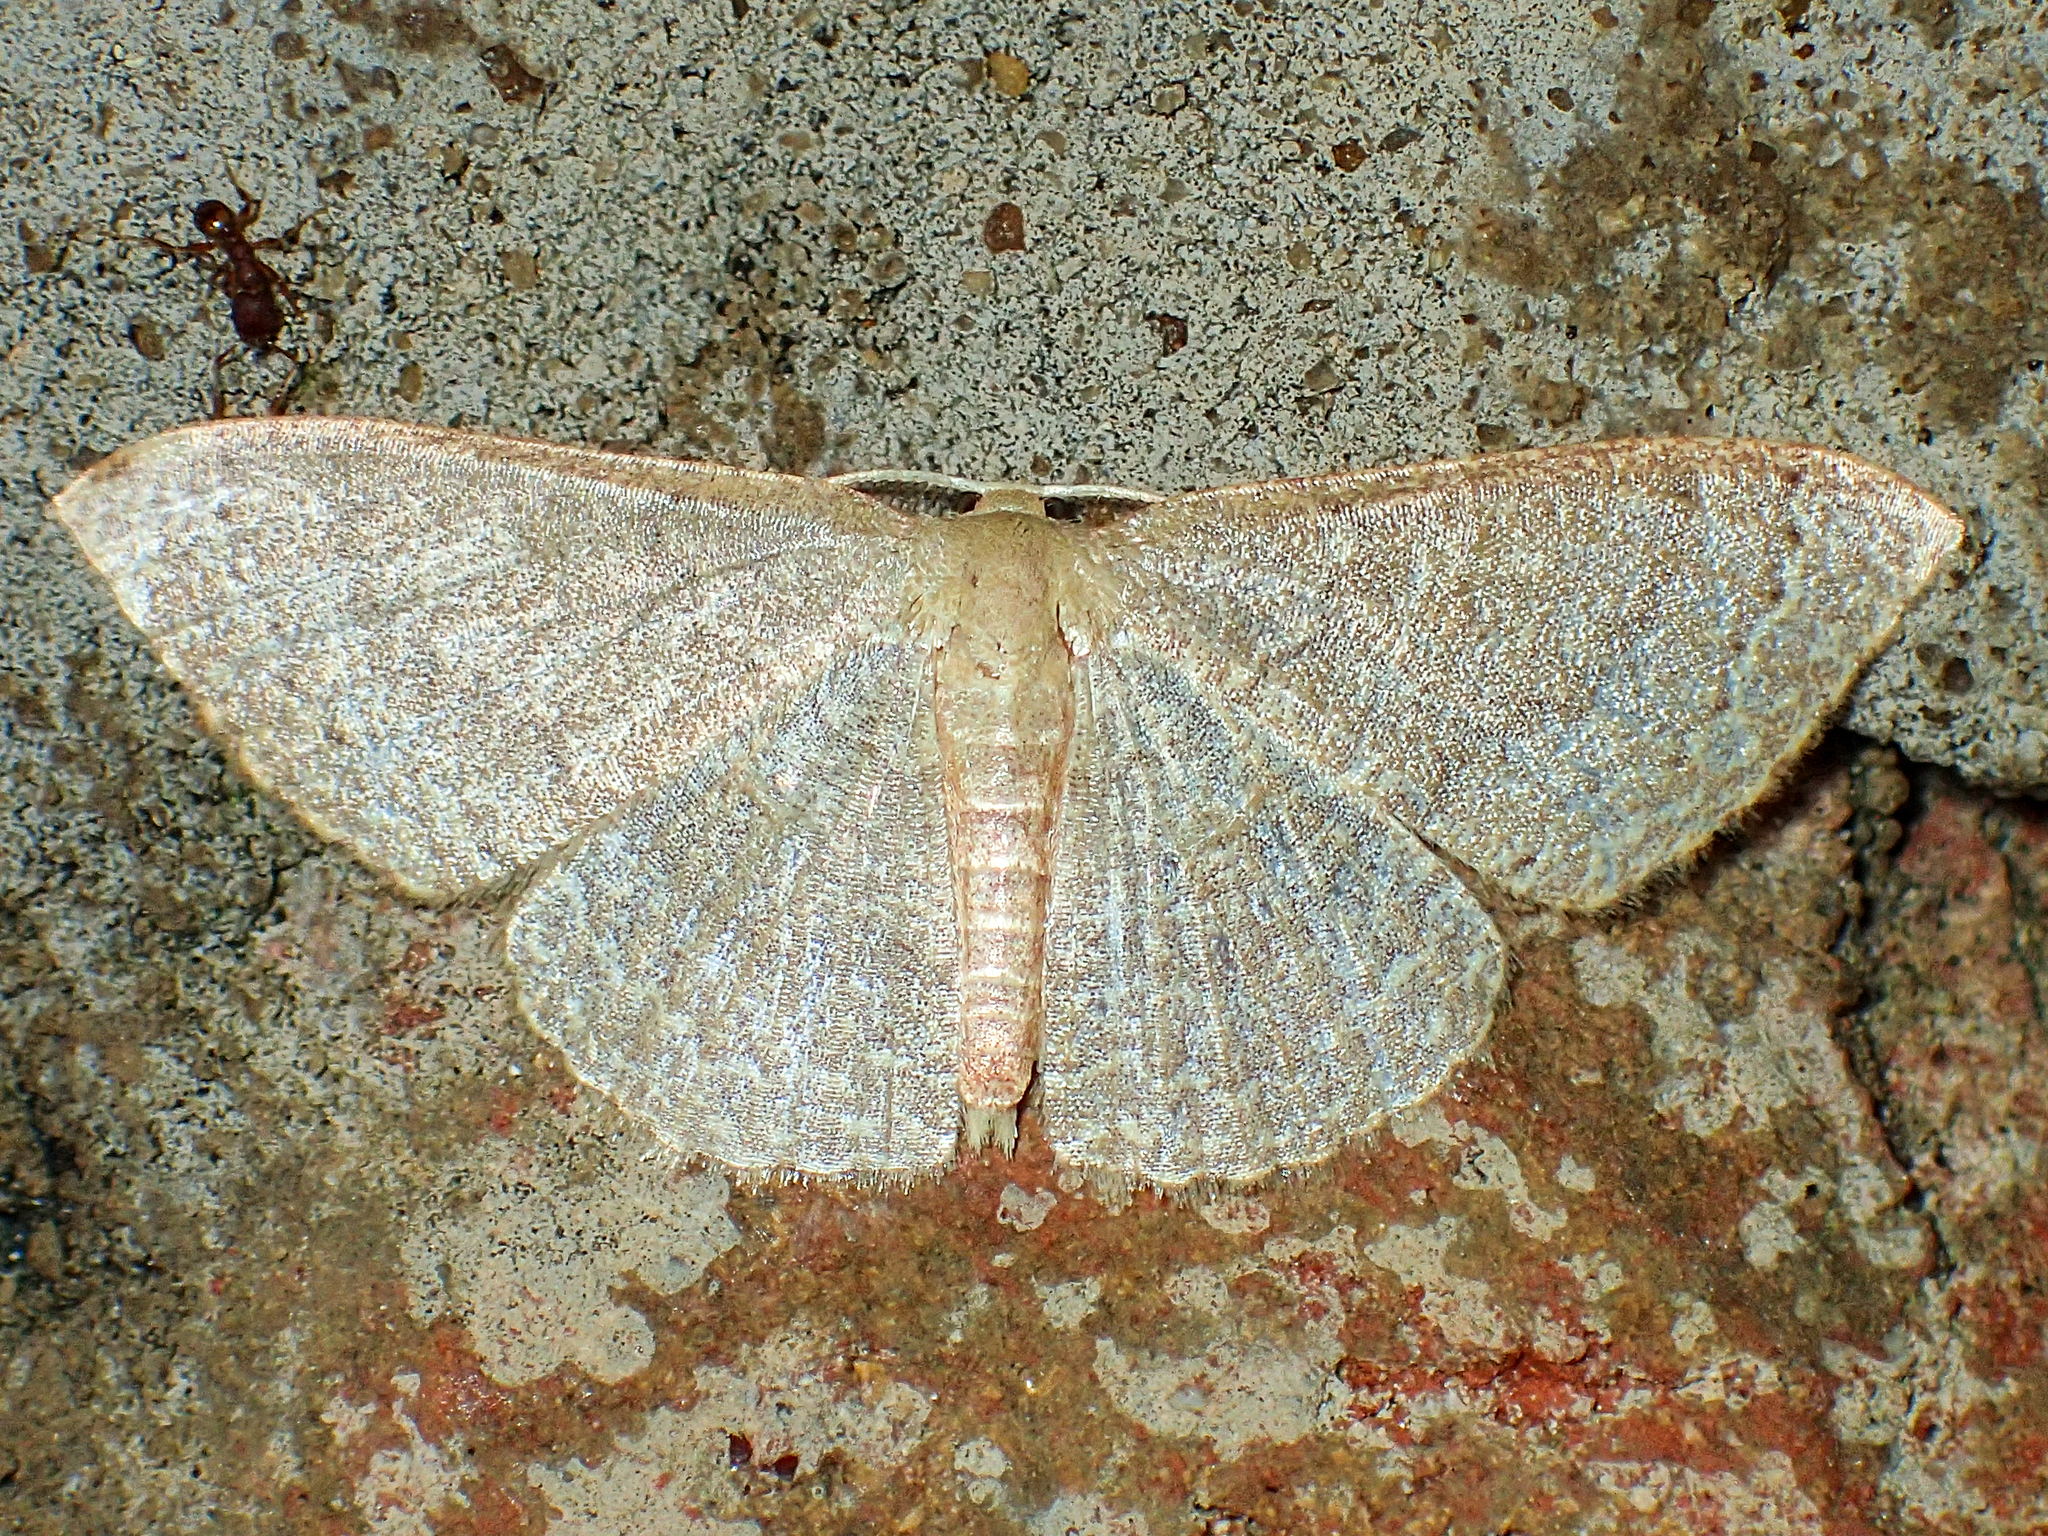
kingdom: Animalia
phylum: Arthropoda
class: Insecta
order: Lepidoptera
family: Geometridae
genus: Pleuroprucha
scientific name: Pleuroprucha insulsaria
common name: Common tan wave
